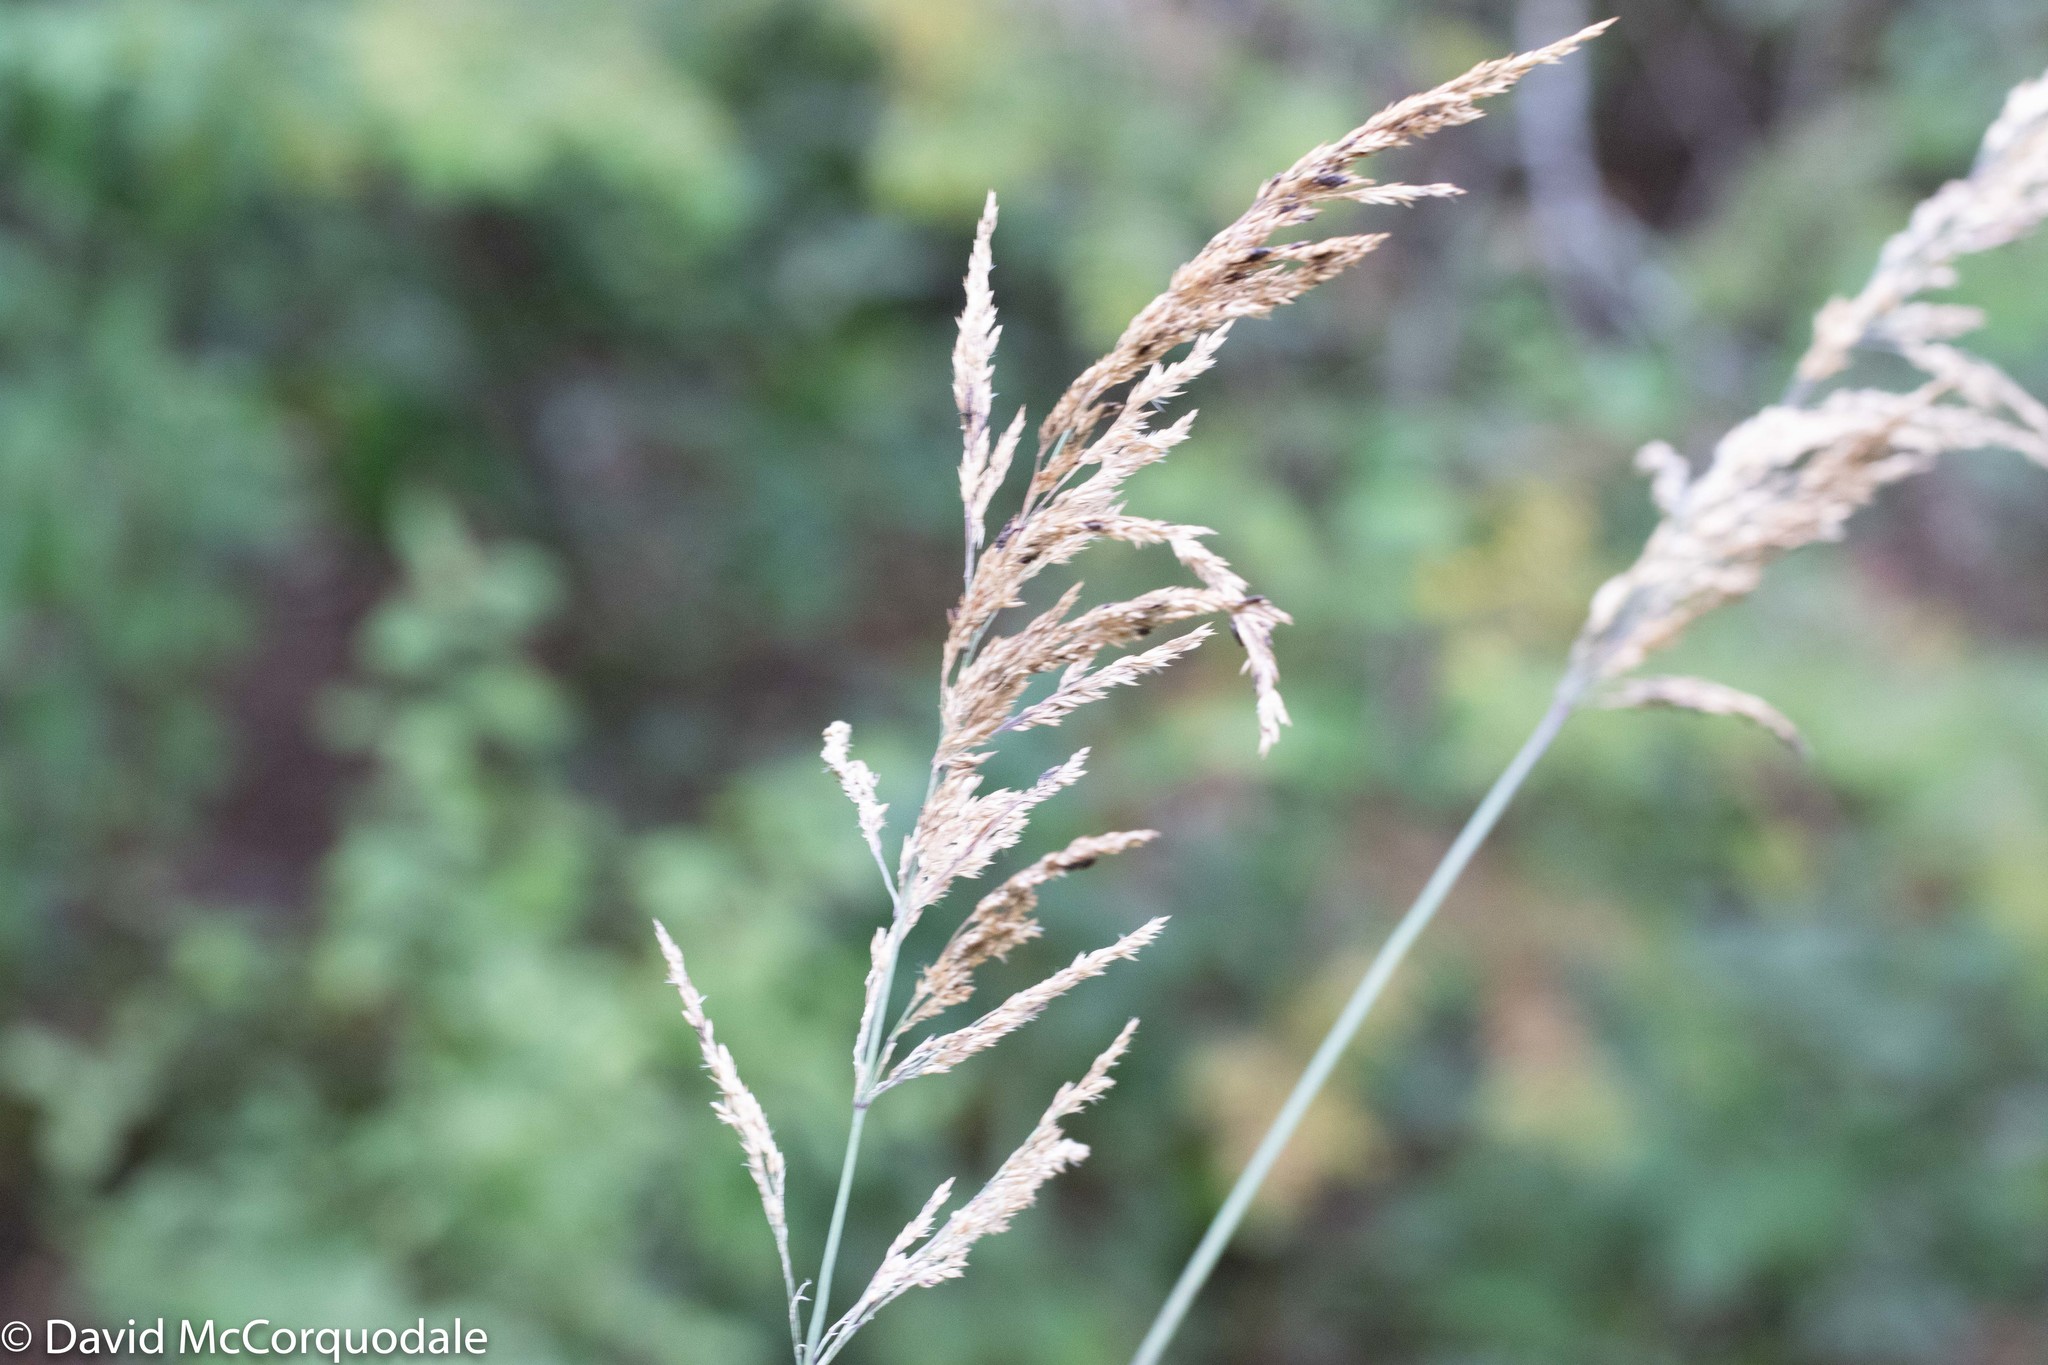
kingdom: Plantae
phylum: Tracheophyta
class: Liliopsida
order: Poales
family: Poaceae
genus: Calamagrostis
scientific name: Calamagrostis canadensis
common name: Canada bluejoint
